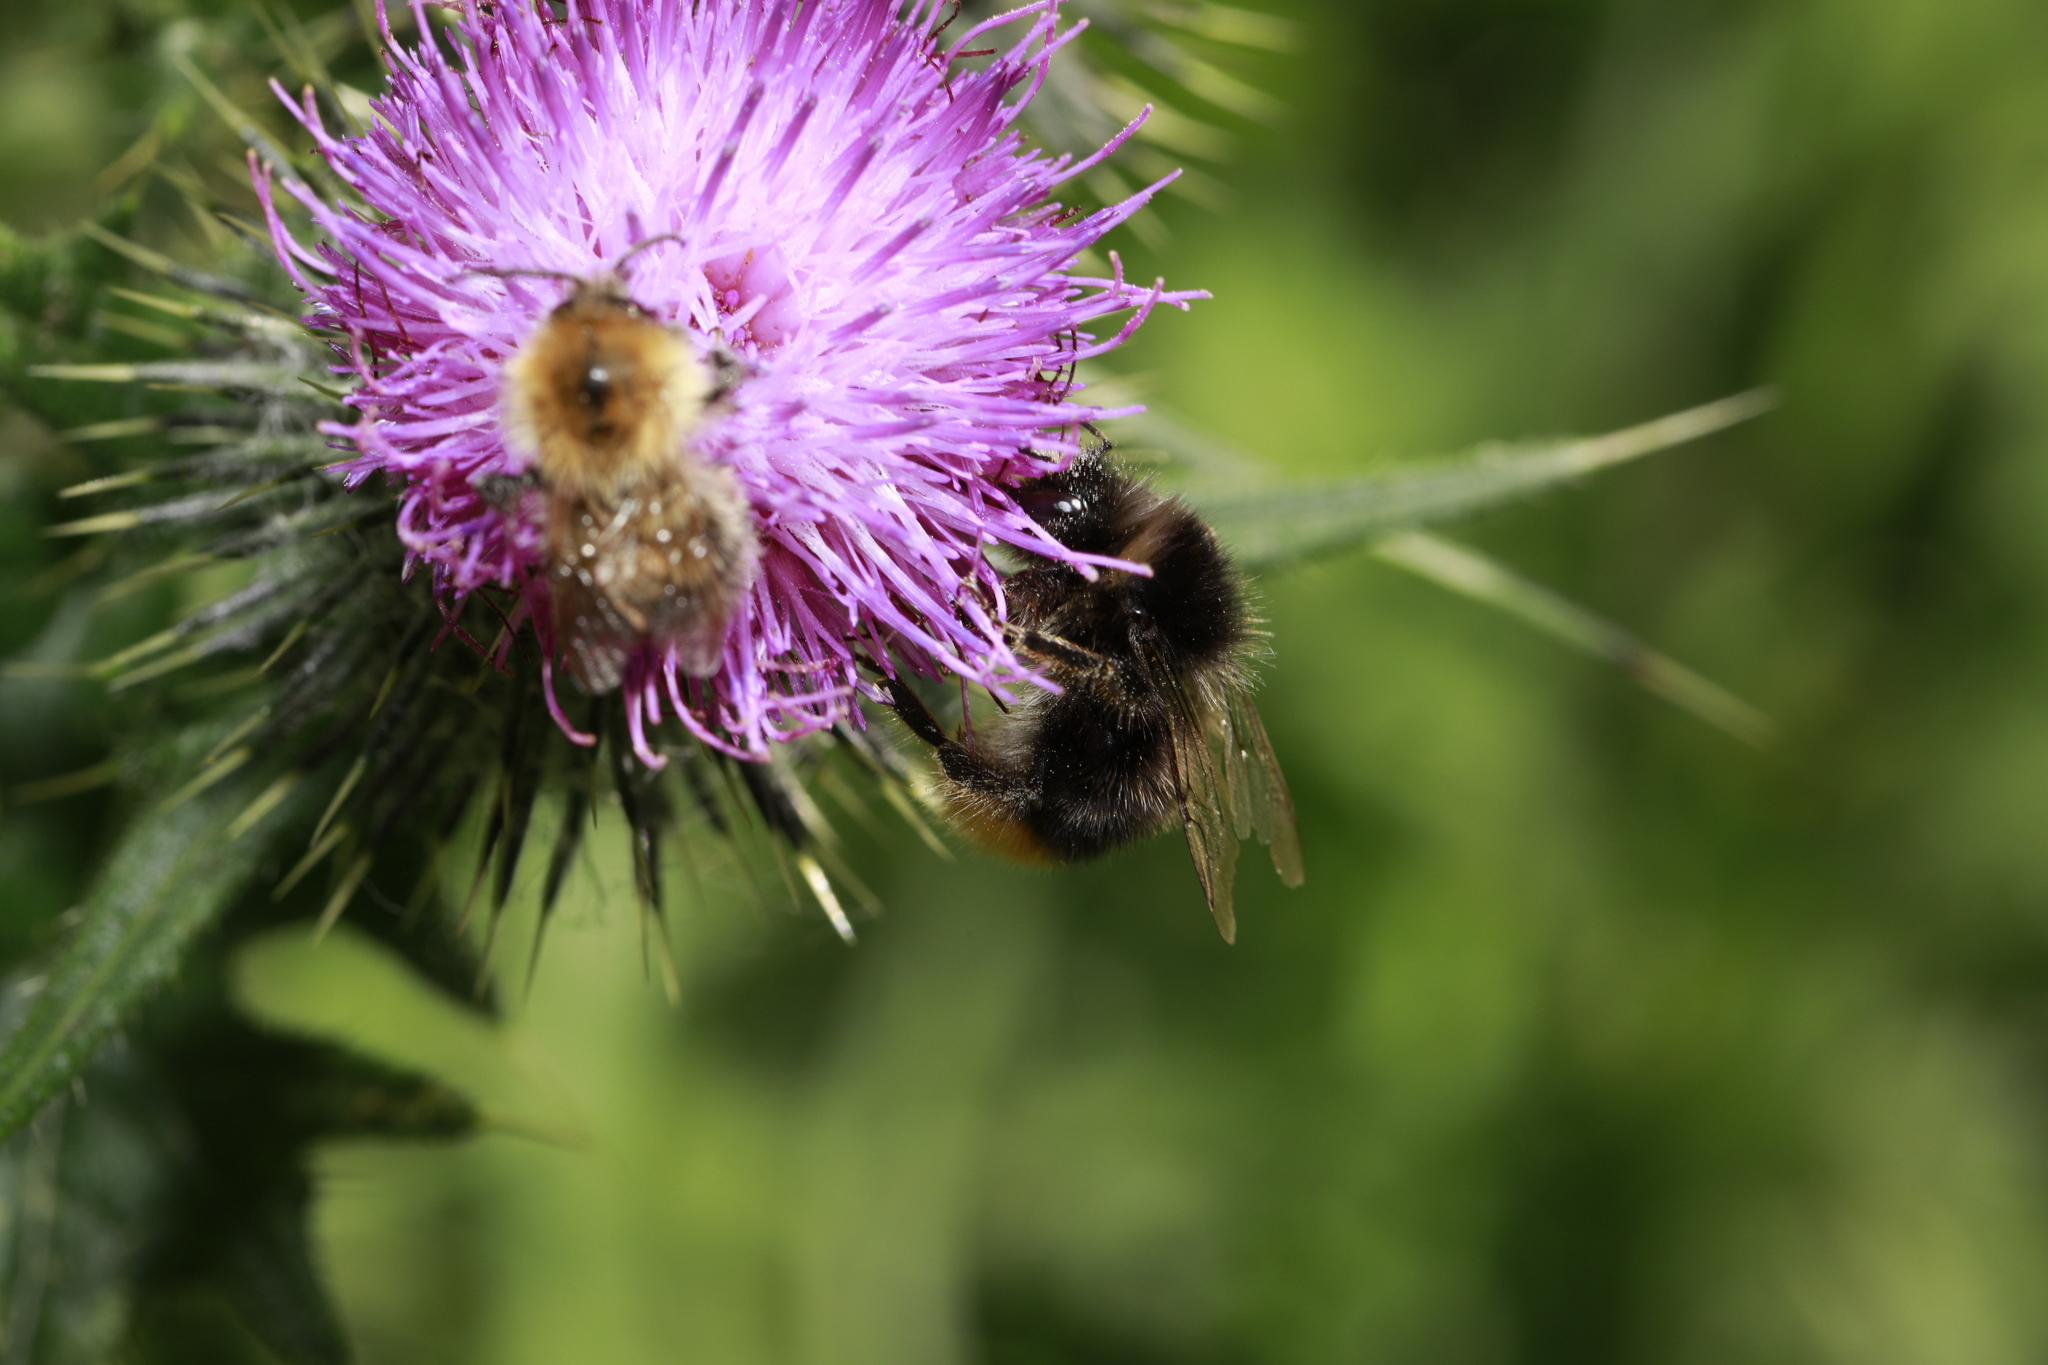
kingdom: Animalia
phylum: Arthropoda
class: Insecta
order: Hymenoptera
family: Apidae
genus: Bombus
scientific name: Bombus pascuorum
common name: Common carder bee
